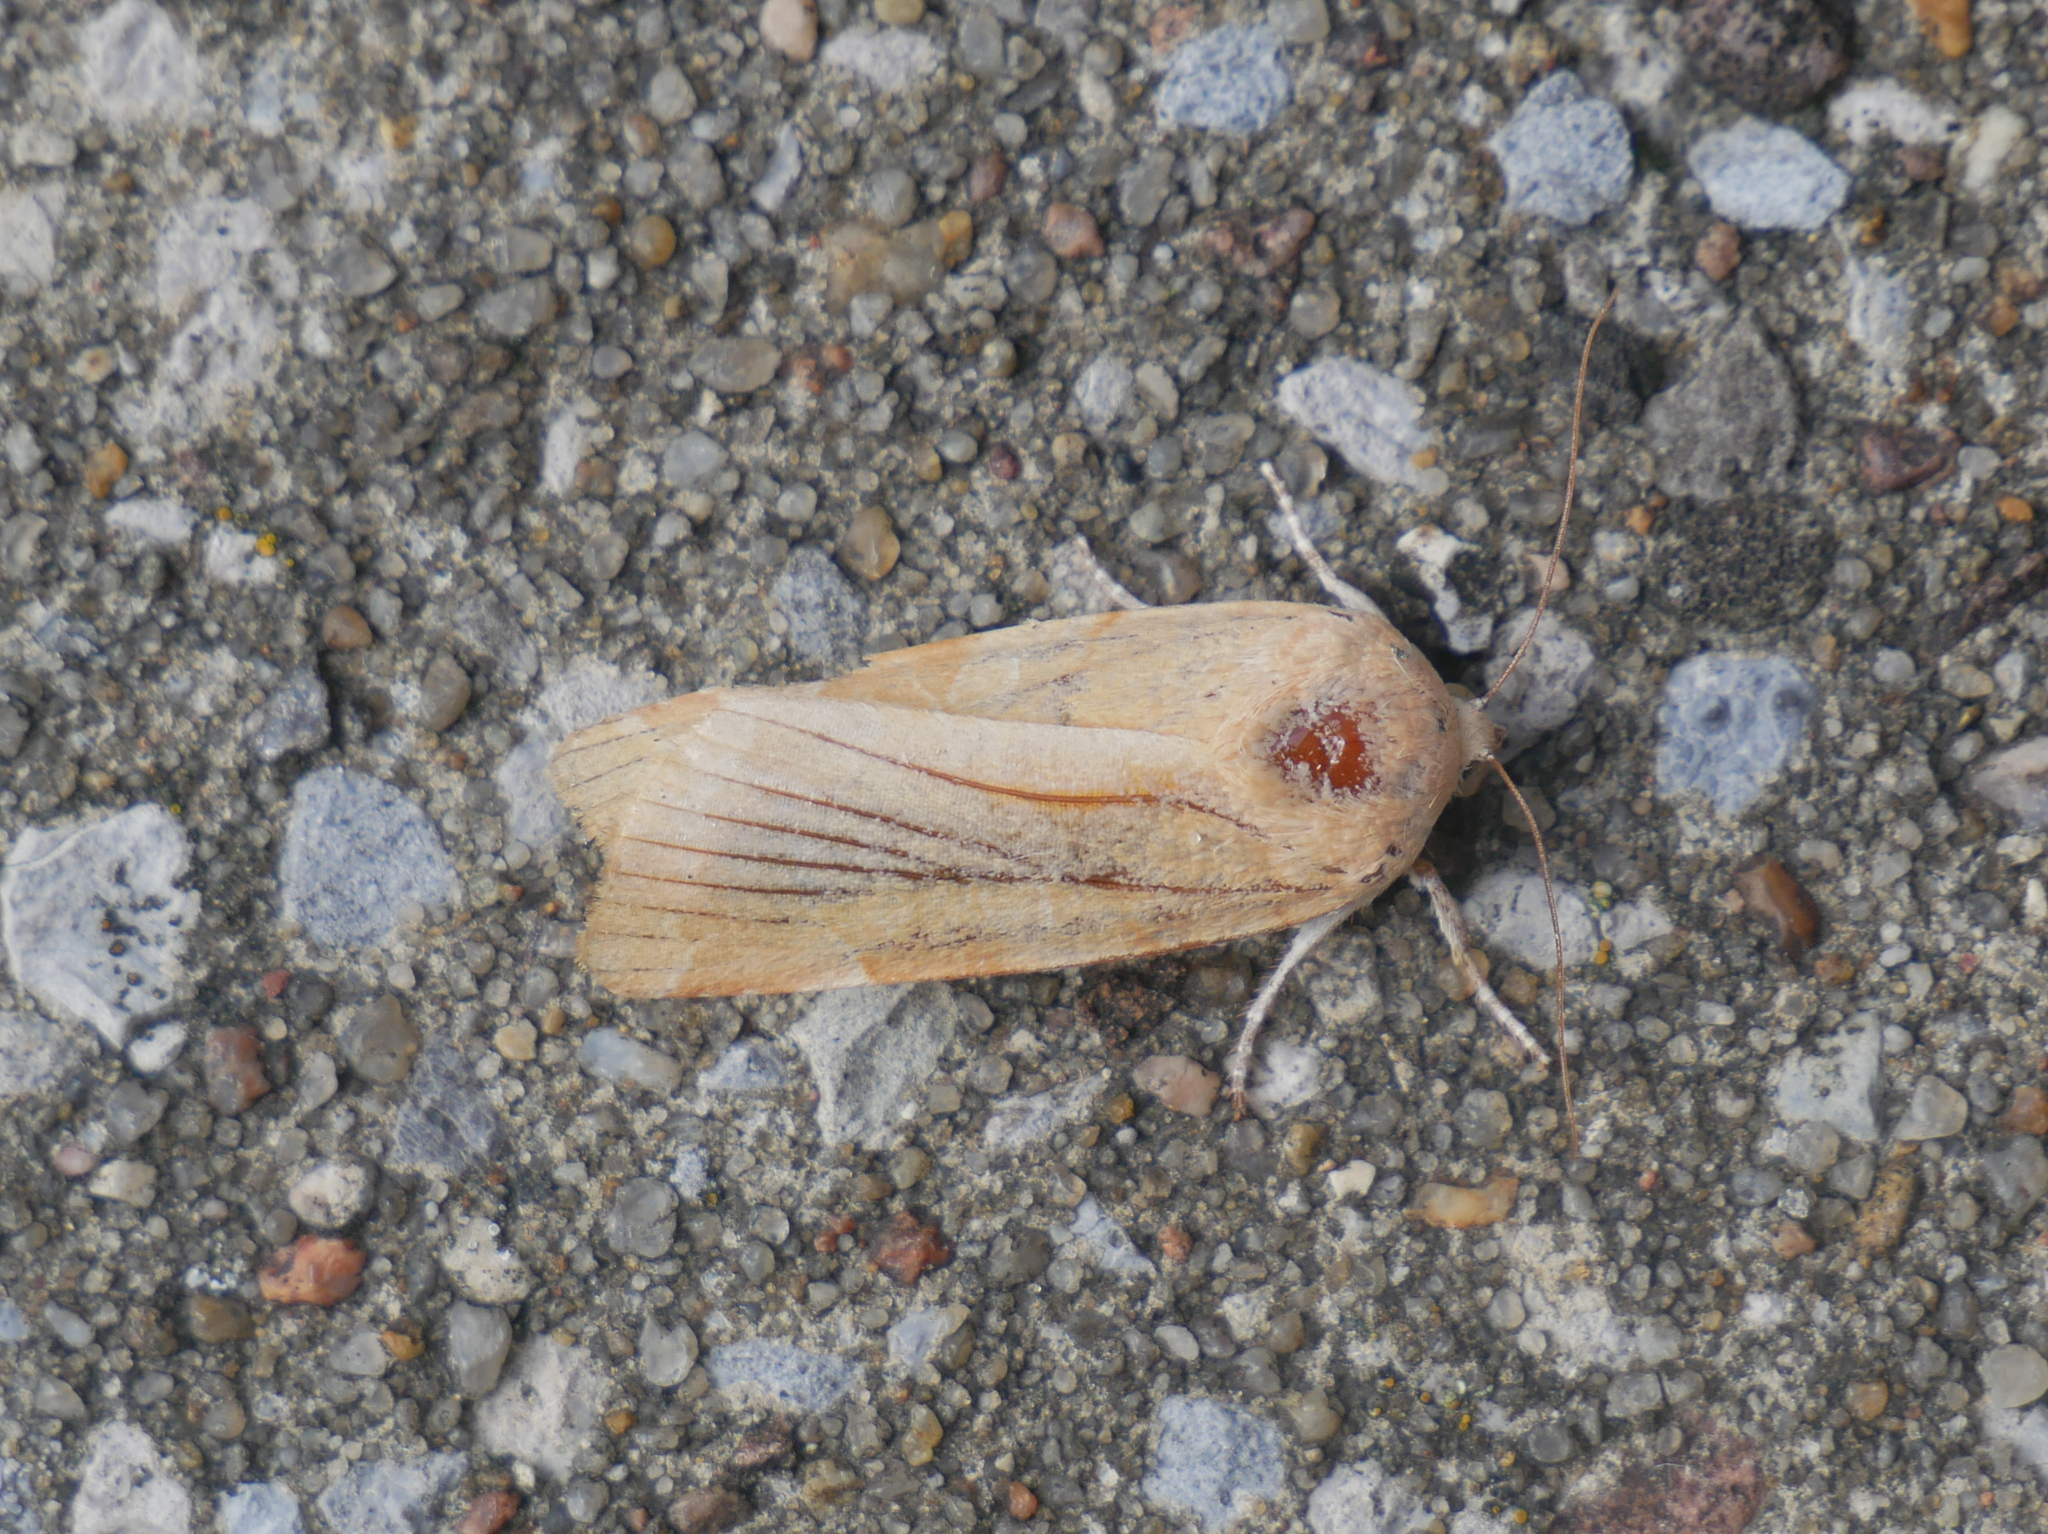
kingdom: Animalia
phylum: Arthropoda
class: Insecta
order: Lepidoptera
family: Noctuidae
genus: Noctua
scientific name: Noctua fimbriata
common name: Broad-bordered yellow underwing
